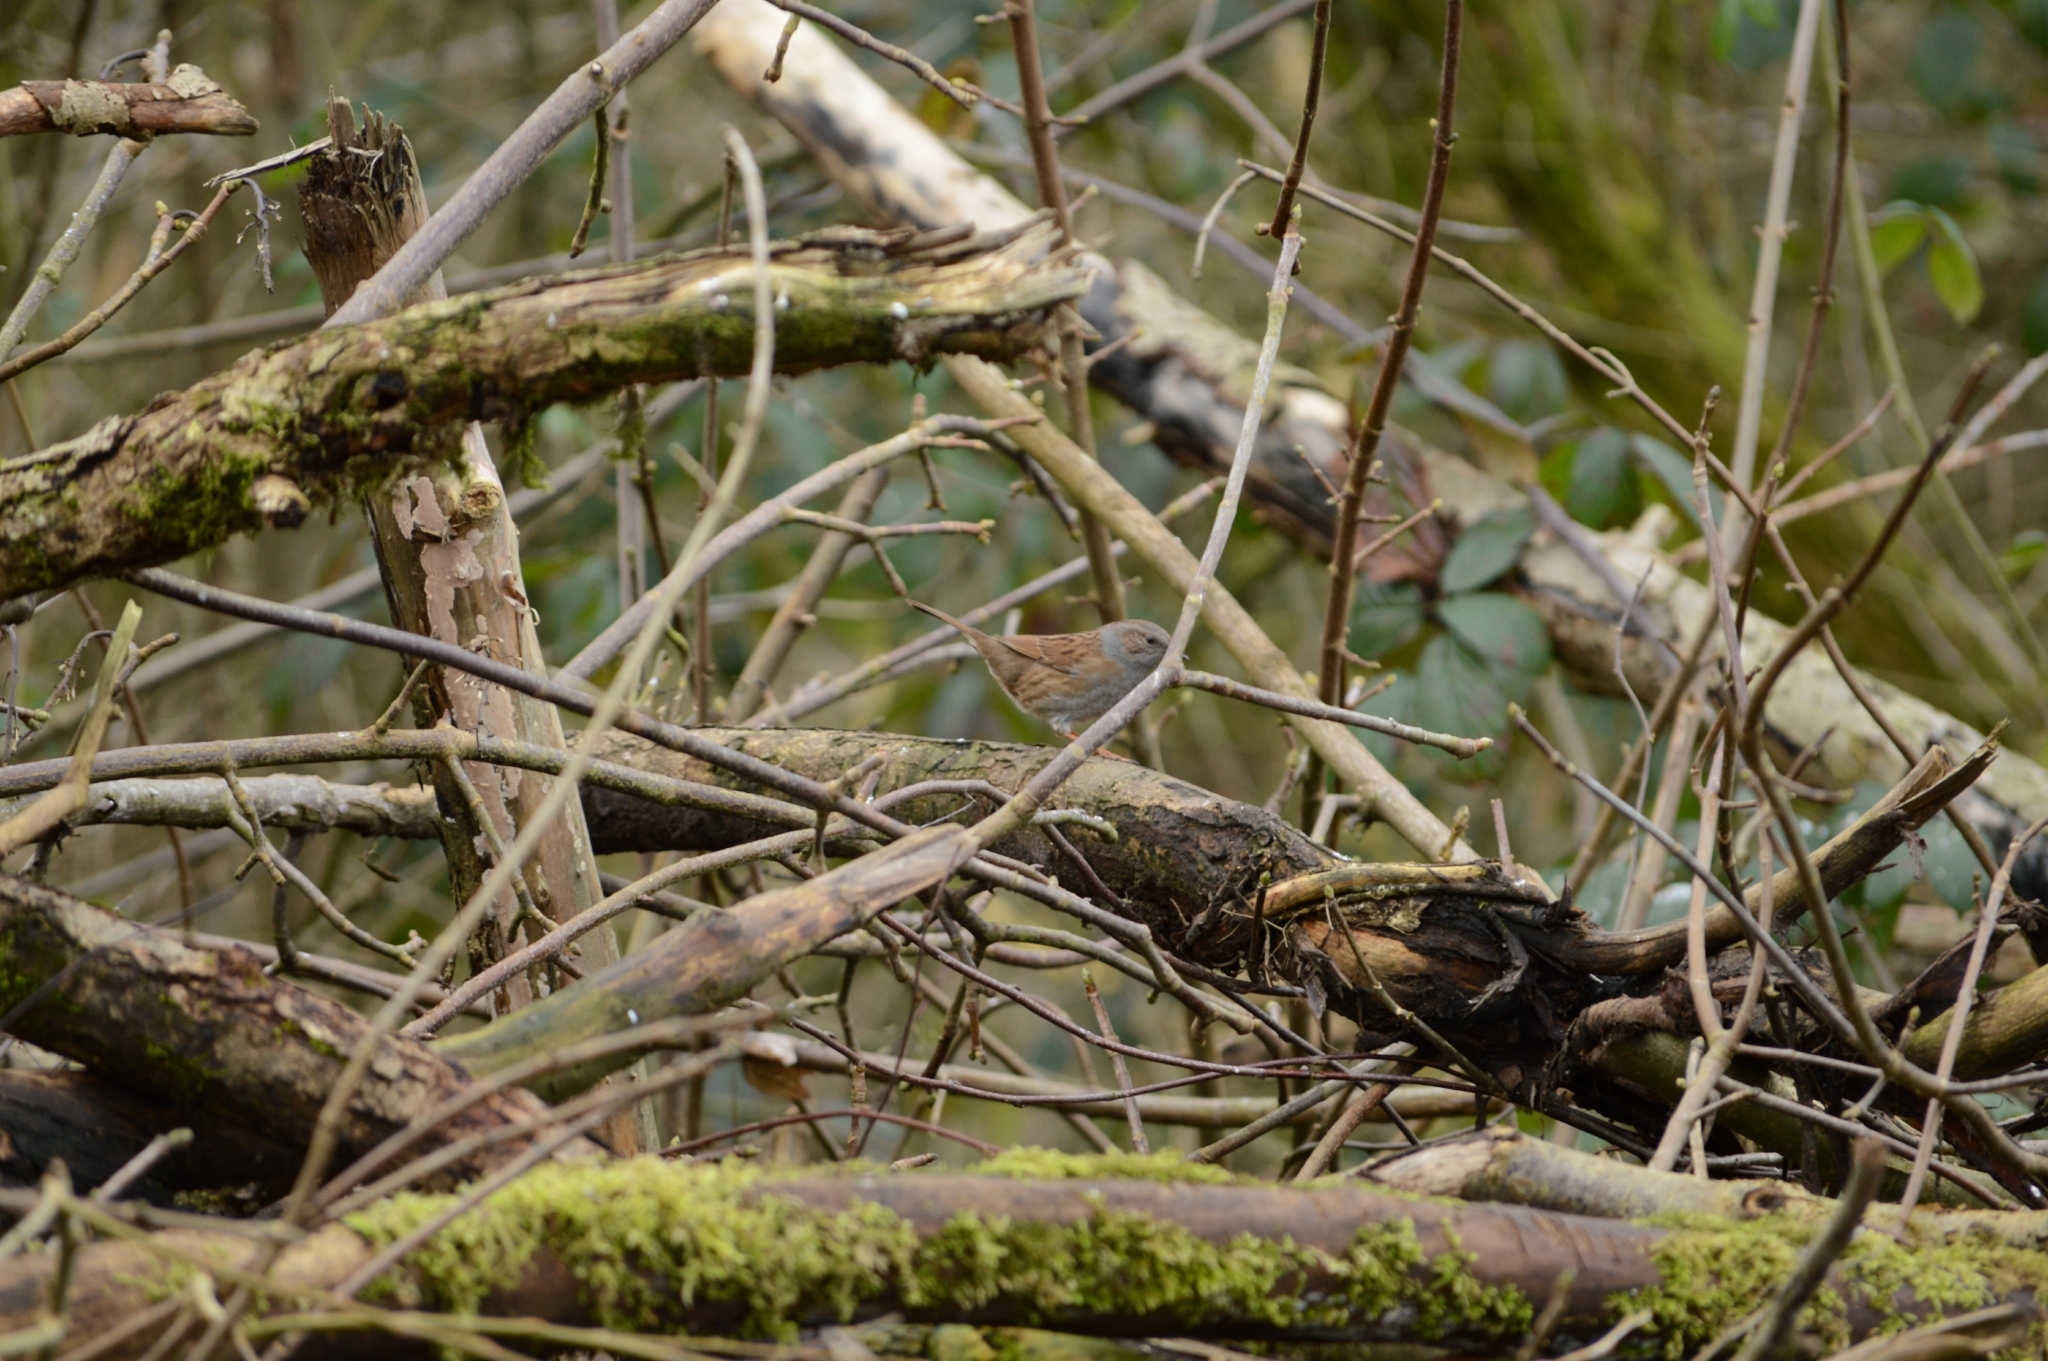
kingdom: Animalia
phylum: Chordata
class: Aves
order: Passeriformes
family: Prunellidae
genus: Prunella
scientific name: Prunella modularis
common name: Dunnock
